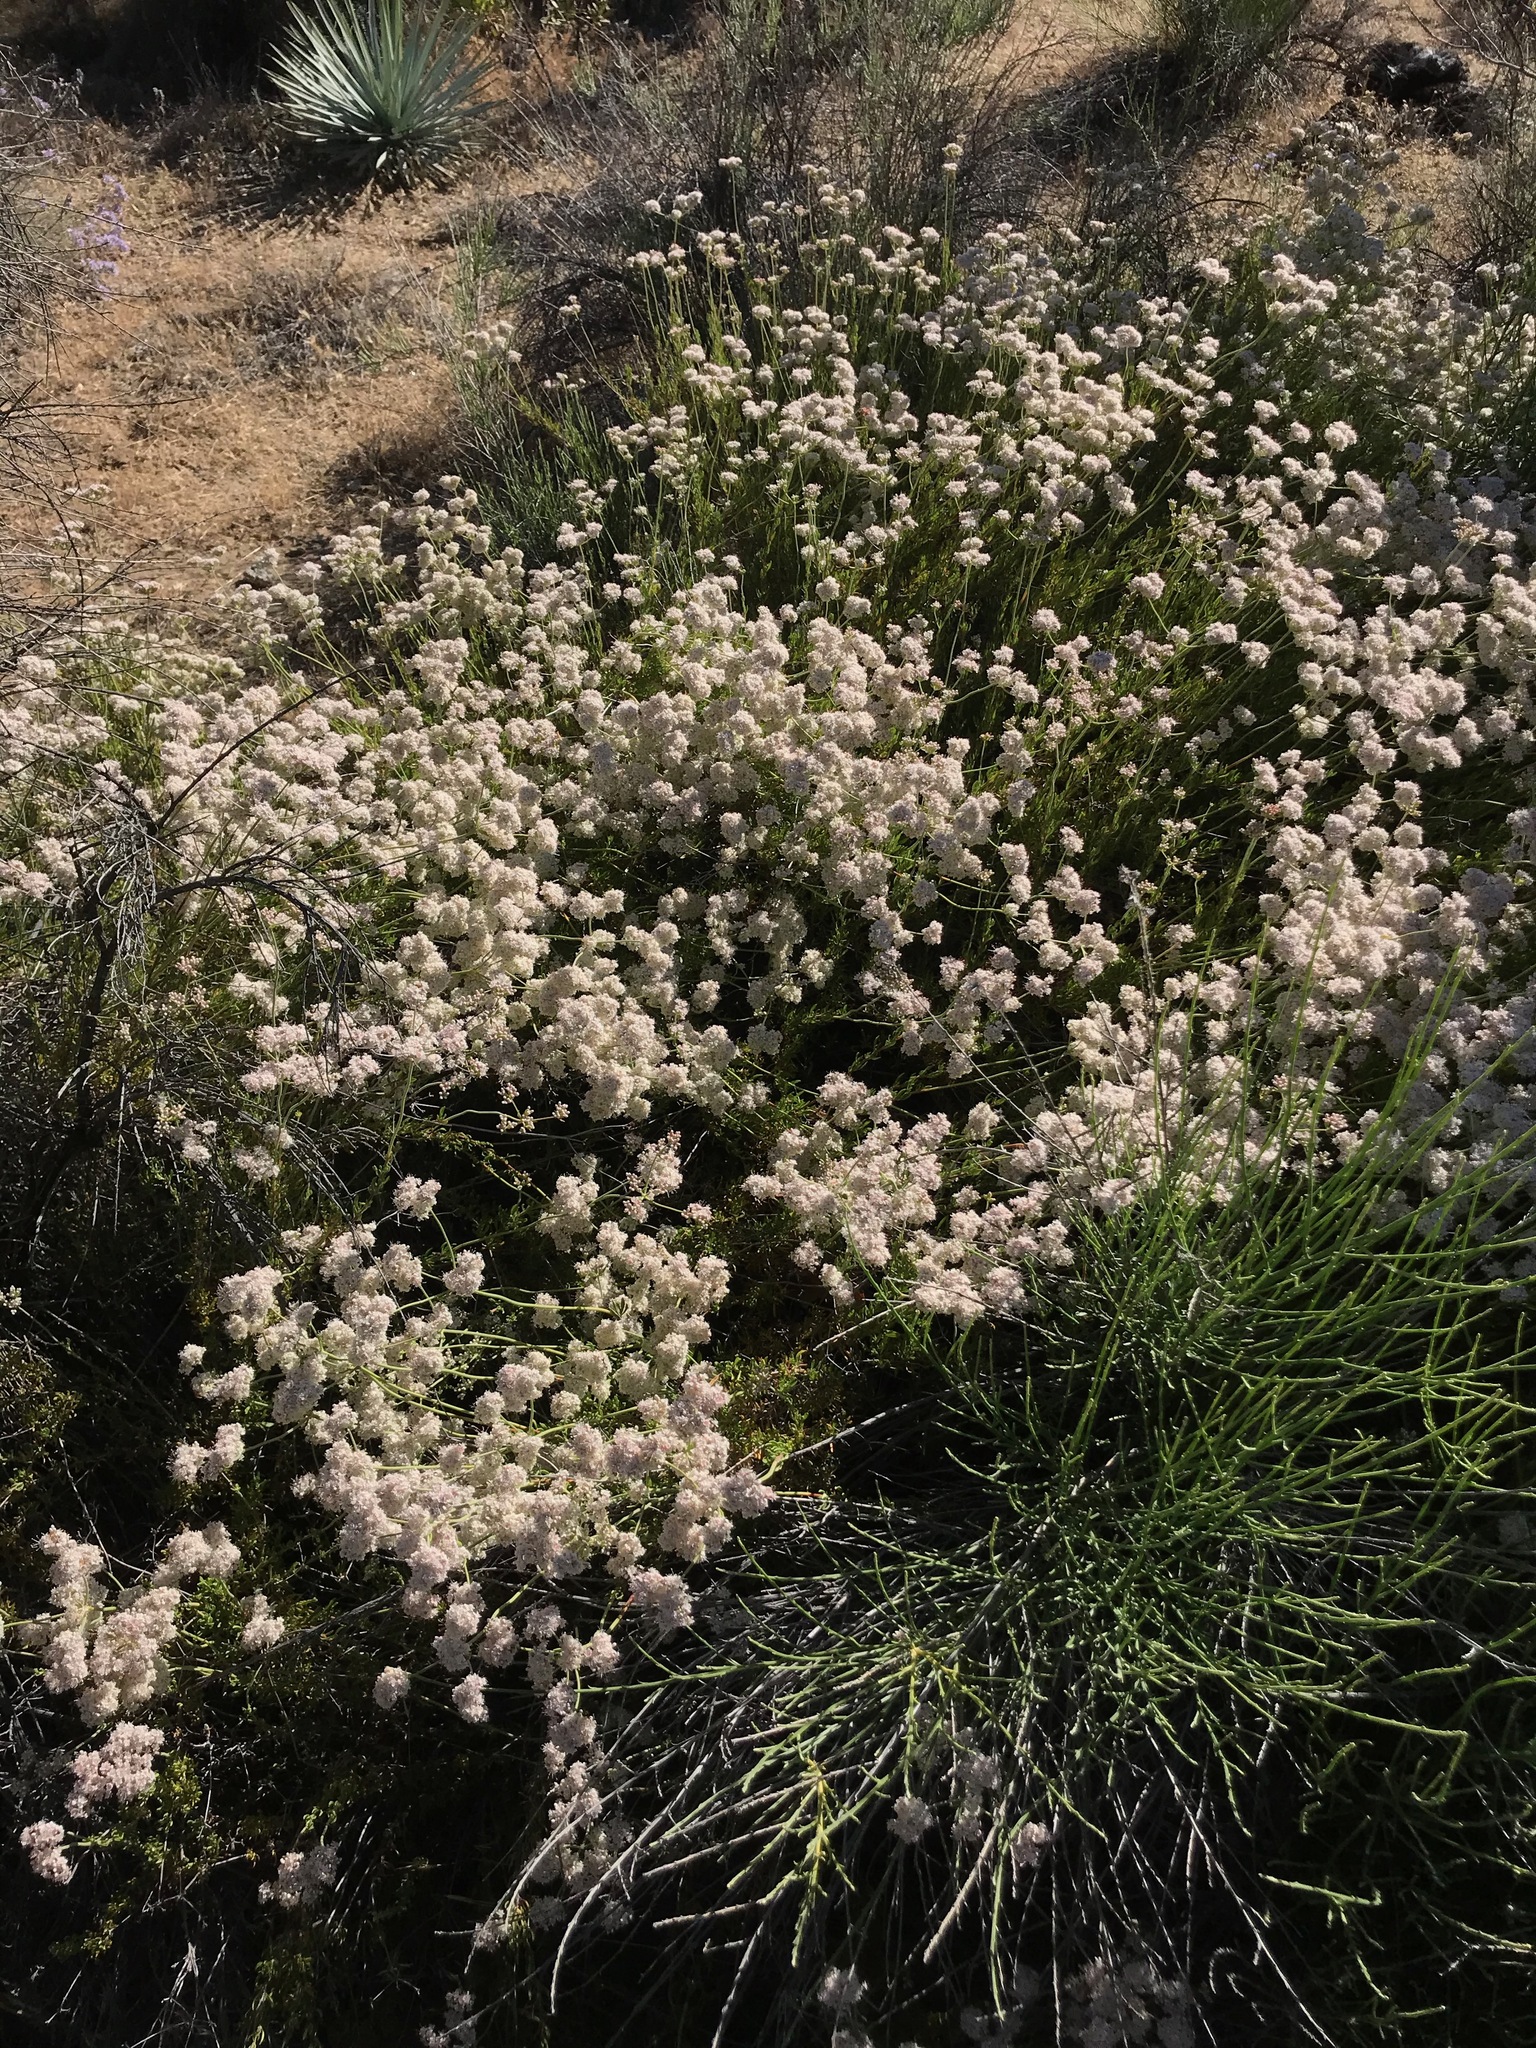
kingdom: Plantae
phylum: Tracheophyta
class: Magnoliopsida
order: Caryophyllales
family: Polygonaceae
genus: Eriogonum
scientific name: Eriogonum fasciculatum
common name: California wild buckwheat
